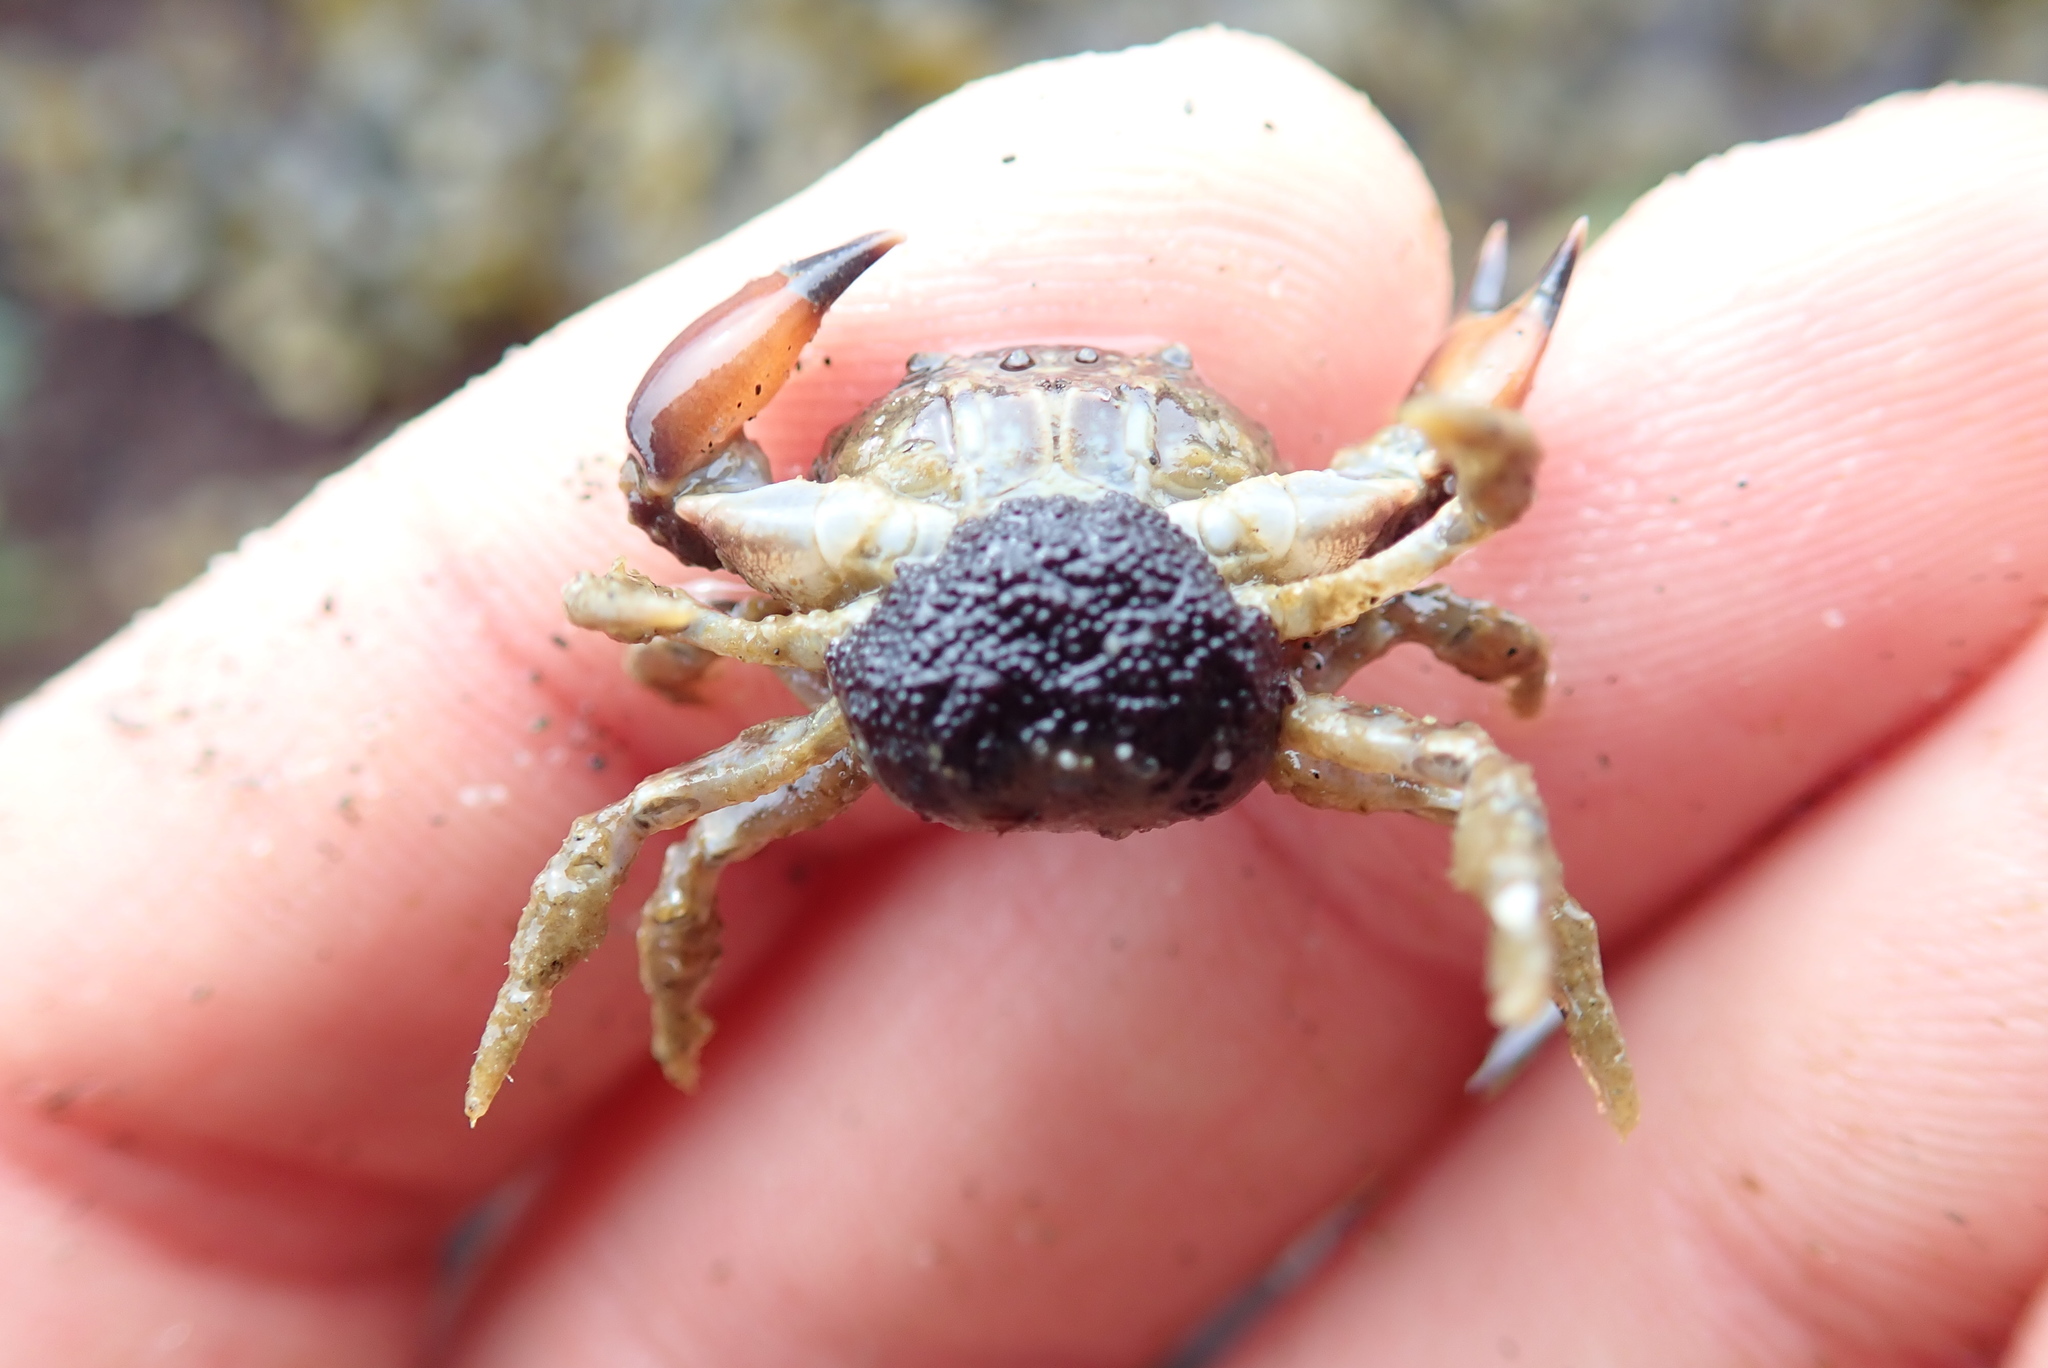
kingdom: Animalia
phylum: Arthropoda
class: Malacostraca
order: Decapoda
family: Panopeidae
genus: Lophopanopeus
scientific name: Lophopanopeus bellus
